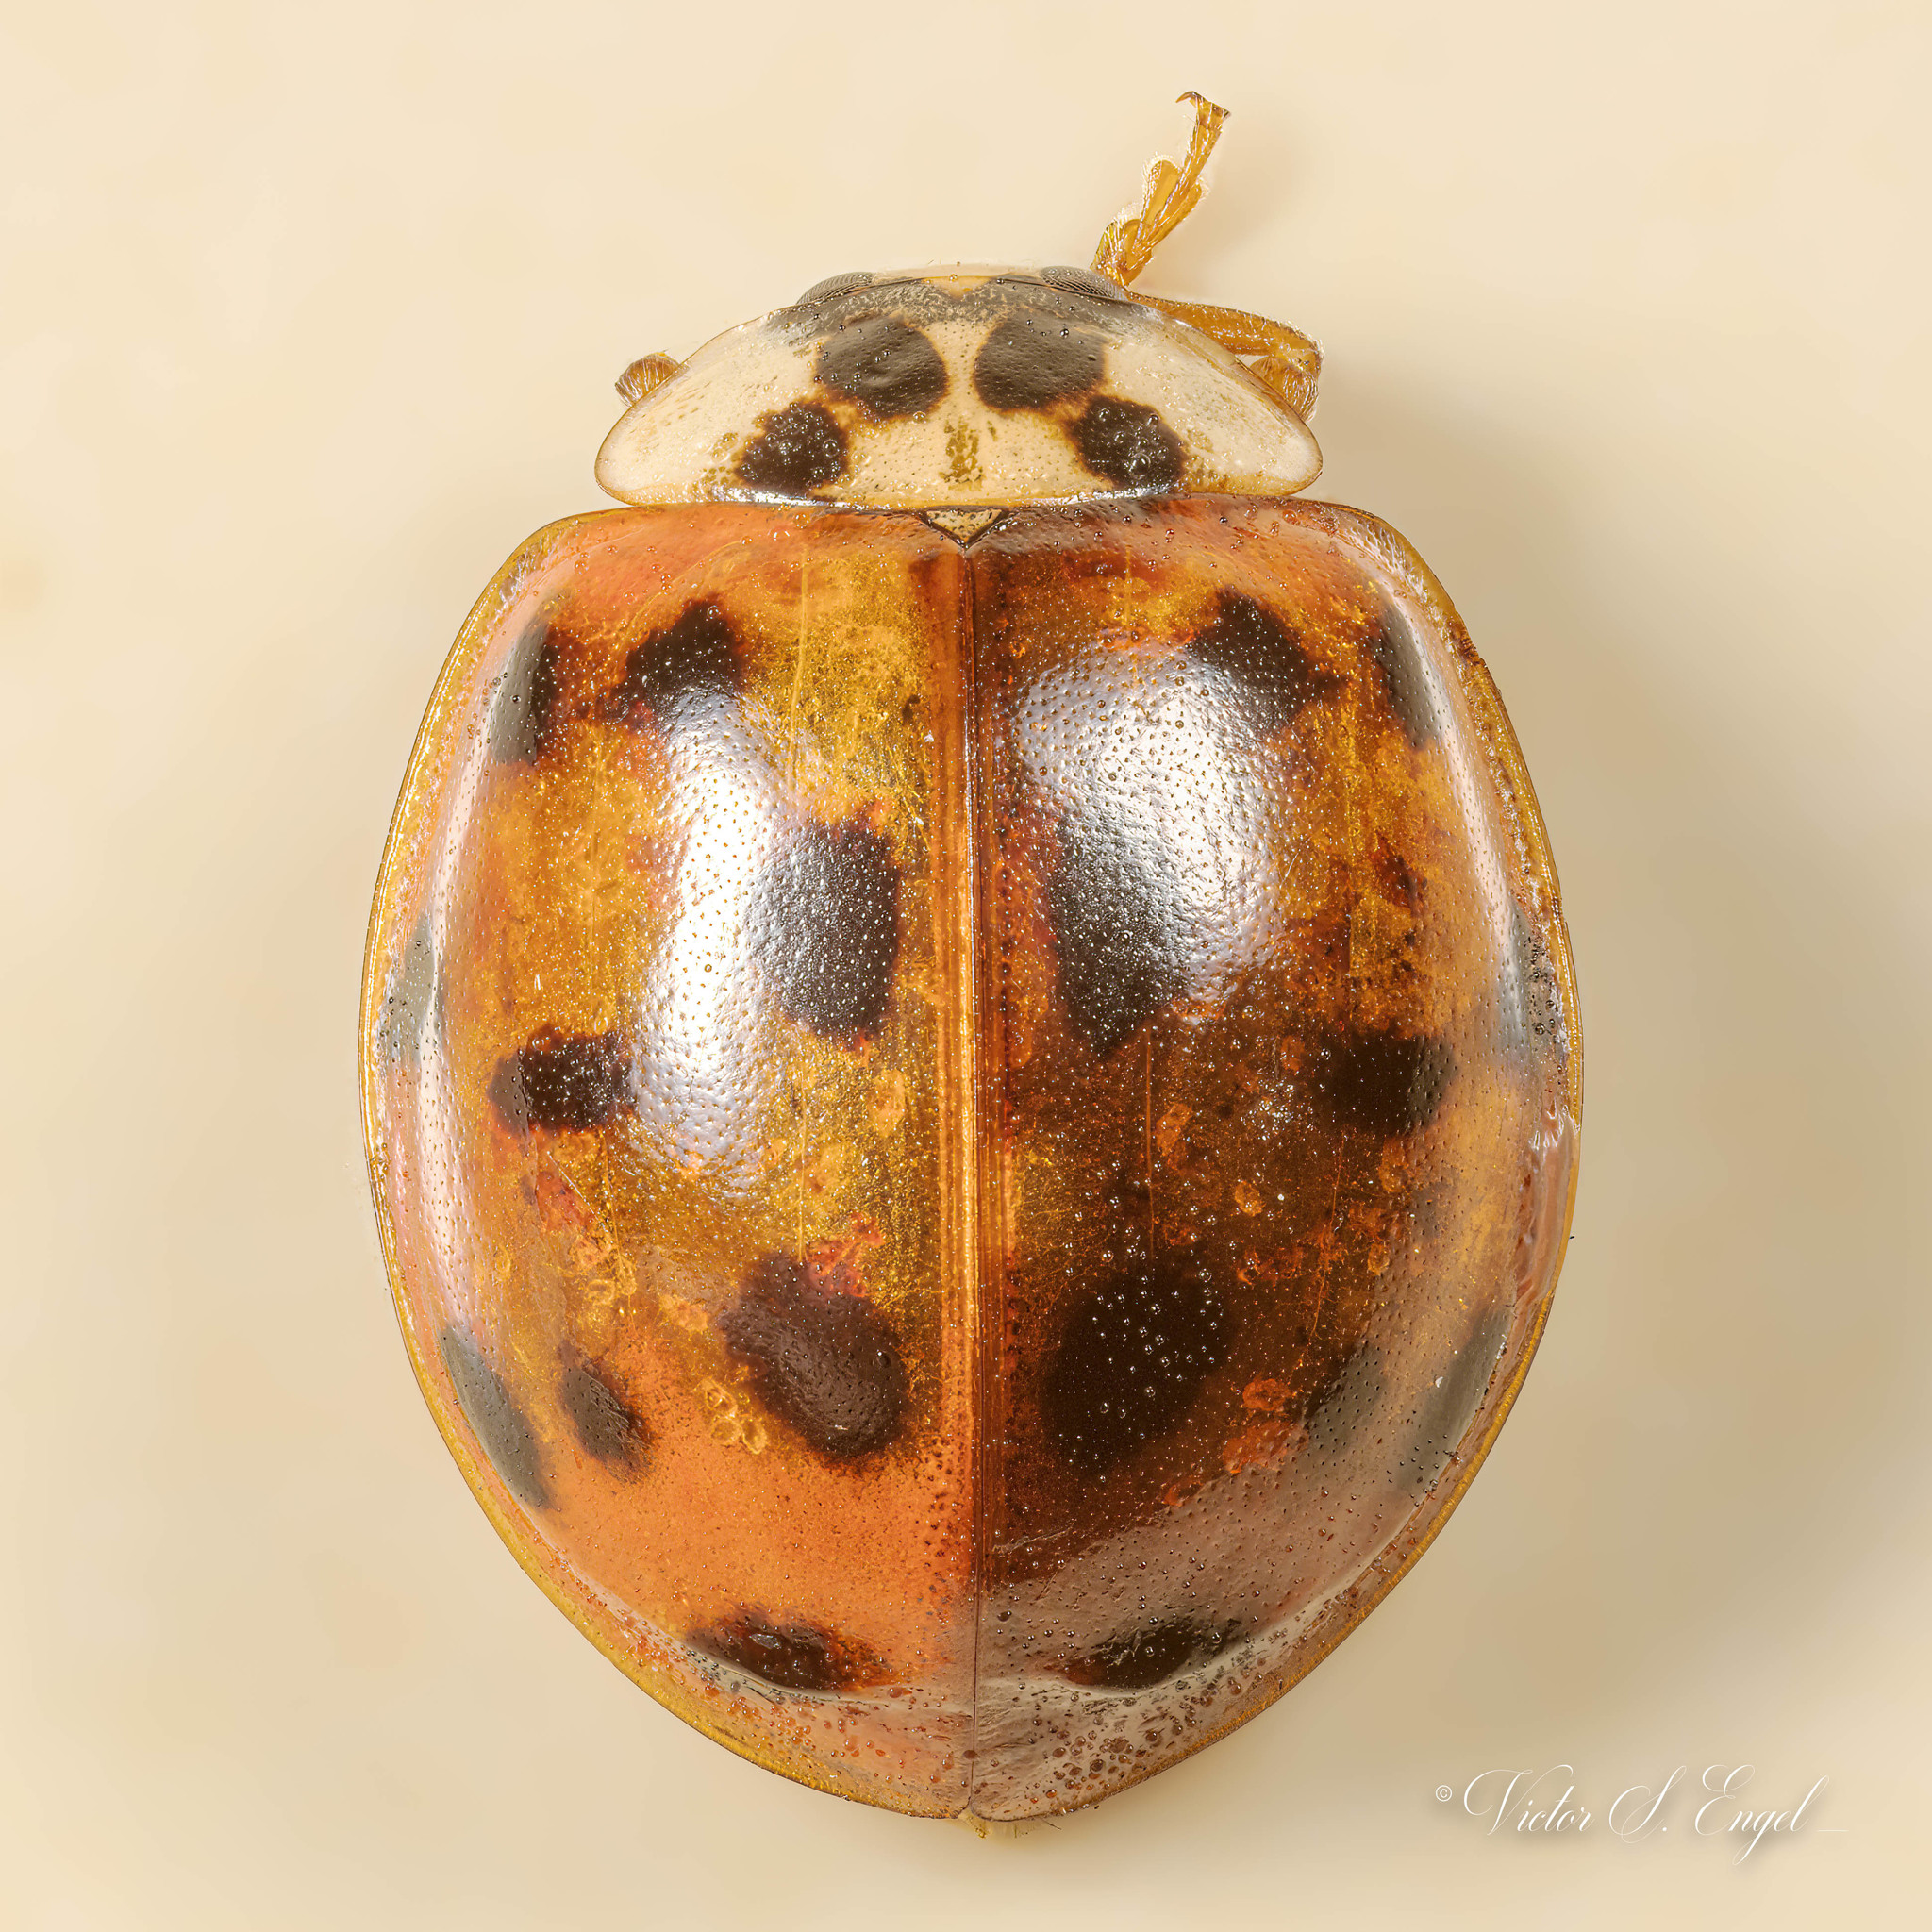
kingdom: Animalia
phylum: Arthropoda
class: Insecta
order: Coleoptera
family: Coccinellidae
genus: Harmonia
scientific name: Harmonia axyridis
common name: Harlequin ladybird
